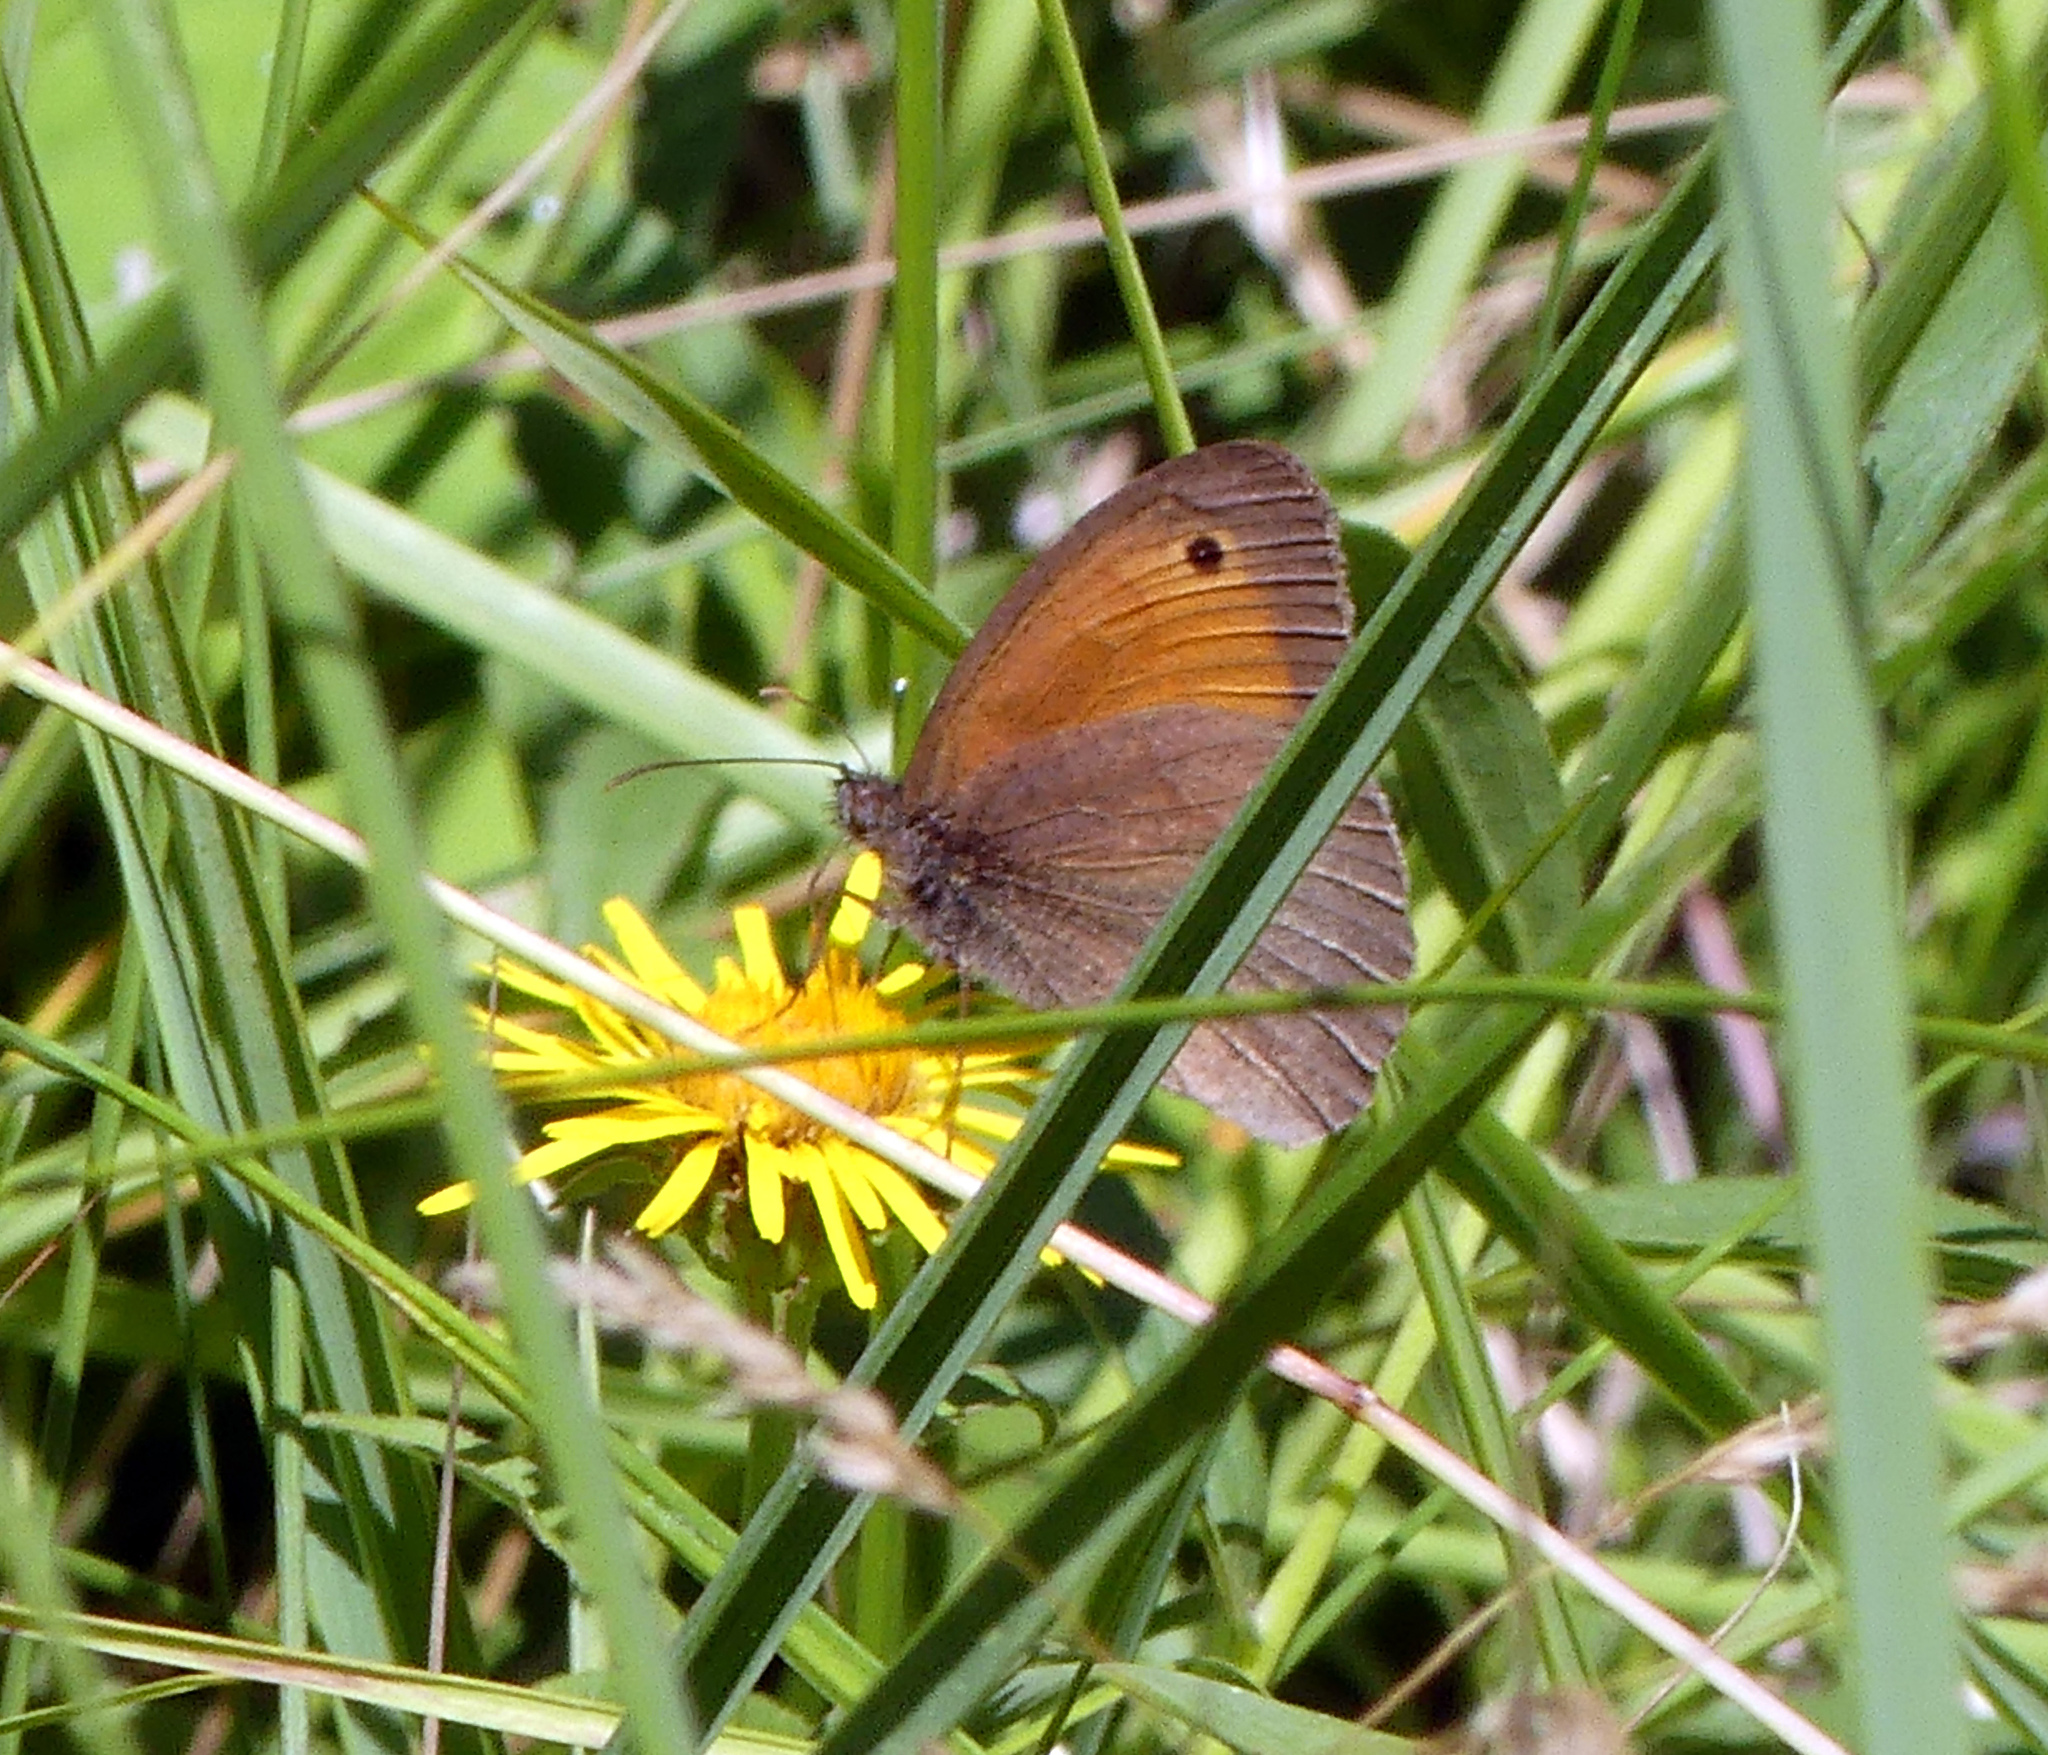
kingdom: Animalia
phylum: Arthropoda
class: Insecta
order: Lepidoptera
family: Nymphalidae
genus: Maniola
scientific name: Maniola jurtina
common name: Meadow brown
